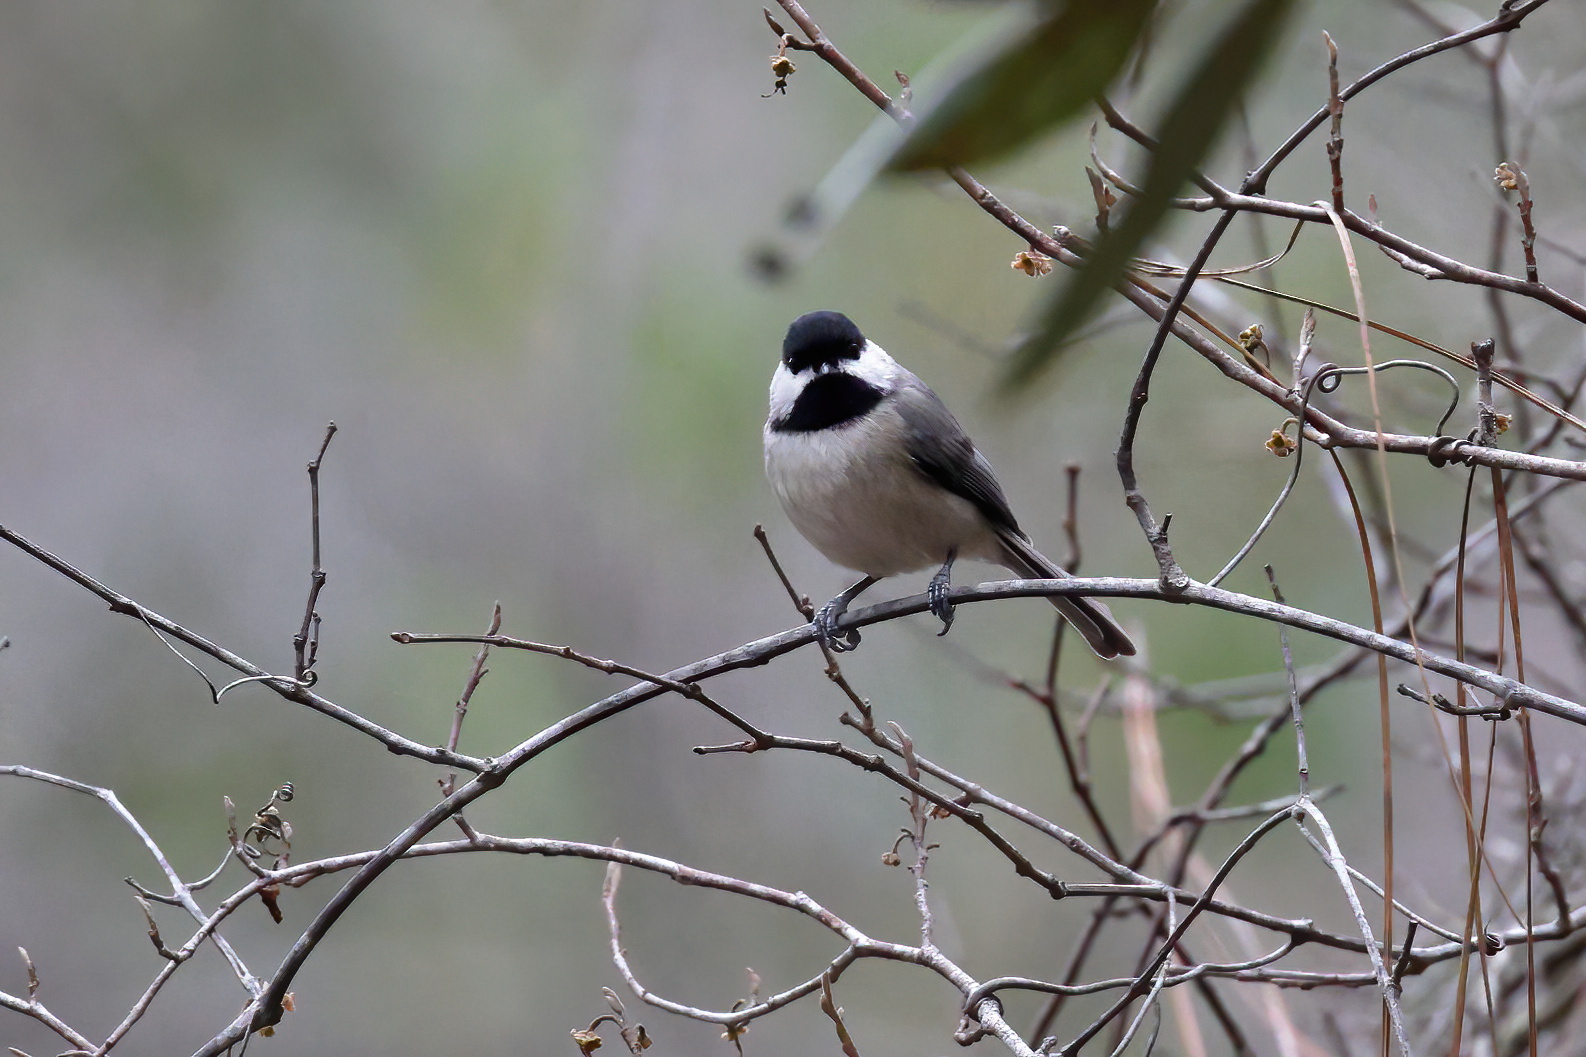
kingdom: Animalia
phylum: Chordata
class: Aves
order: Passeriformes
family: Paridae
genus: Poecile
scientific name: Poecile carolinensis
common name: Carolina chickadee
